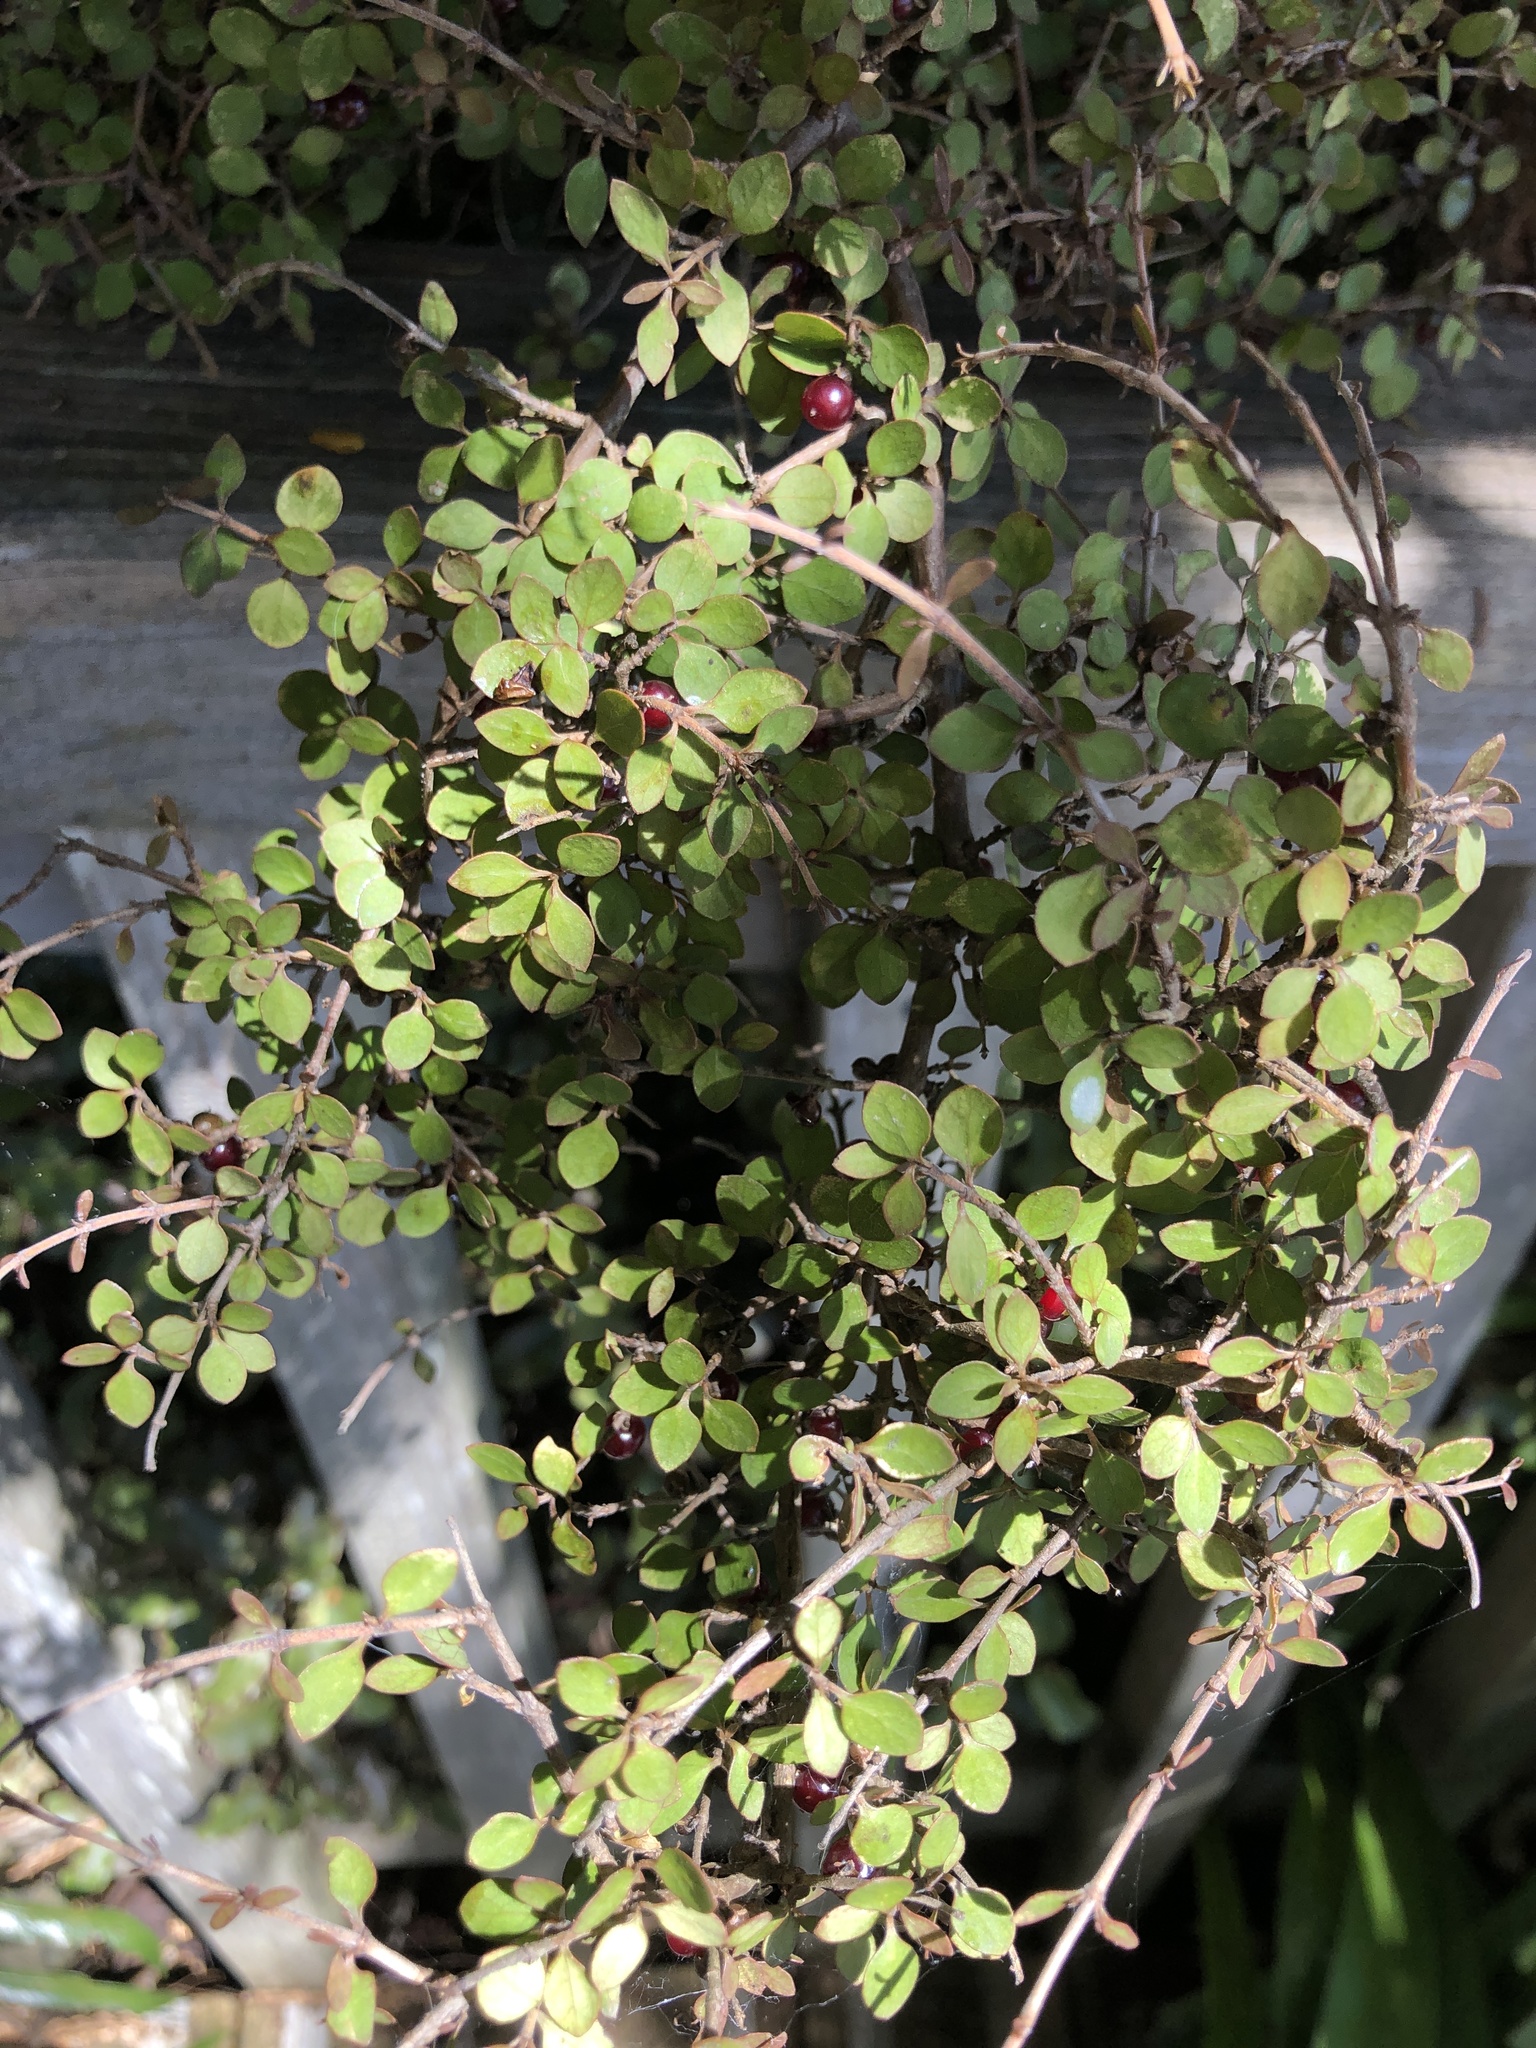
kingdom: Plantae
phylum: Tracheophyta
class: Magnoliopsida
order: Gentianales
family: Rubiaceae
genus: Coprosma
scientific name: Coprosma rhamnoides
